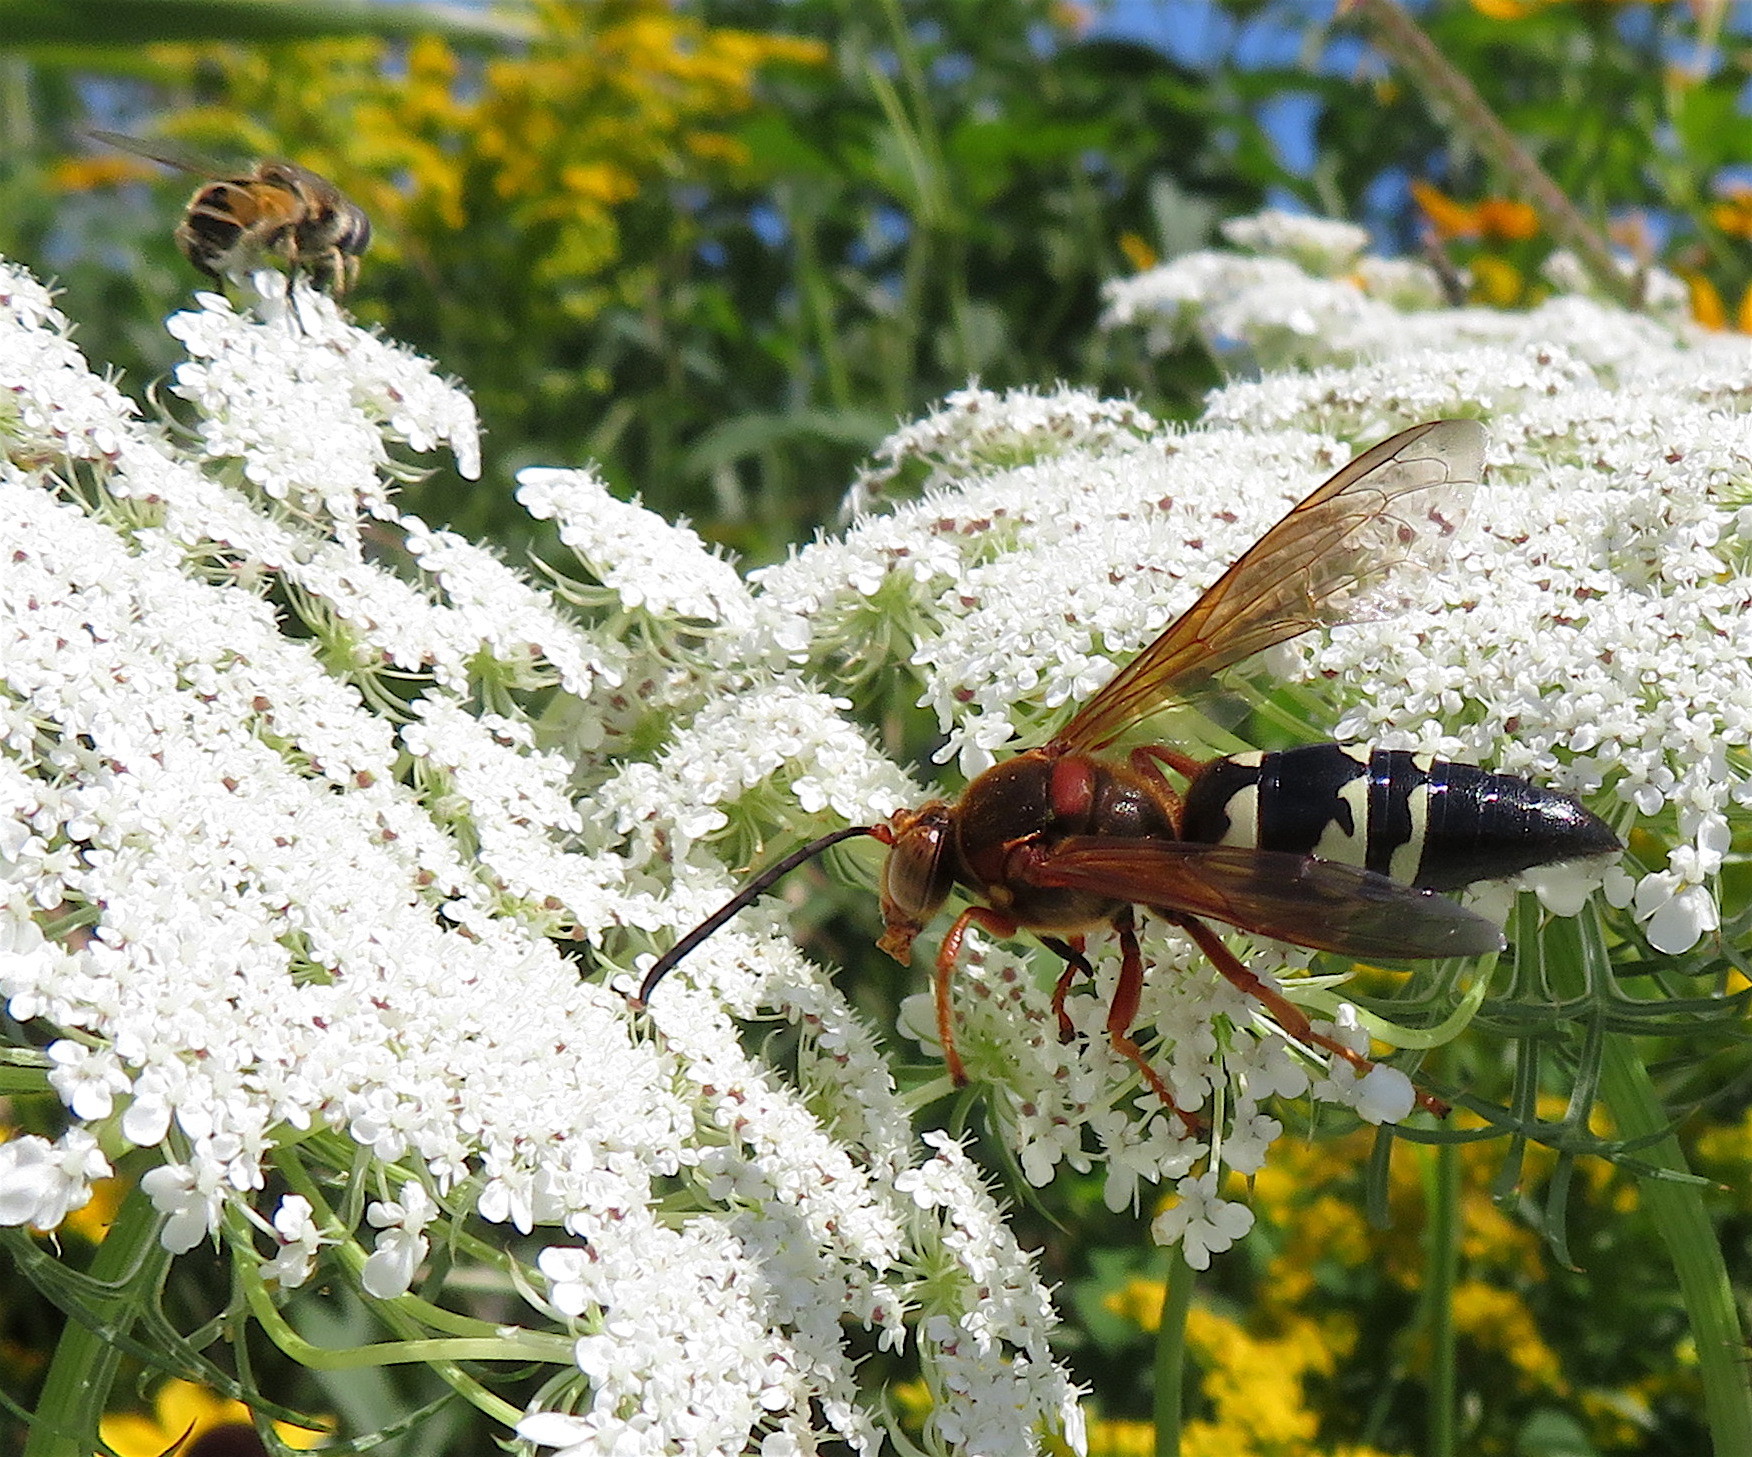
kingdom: Animalia
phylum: Arthropoda
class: Insecta
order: Hymenoptera
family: Crabronidae
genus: Sphecius
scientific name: Sphecius speciosus
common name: Cicada killer
